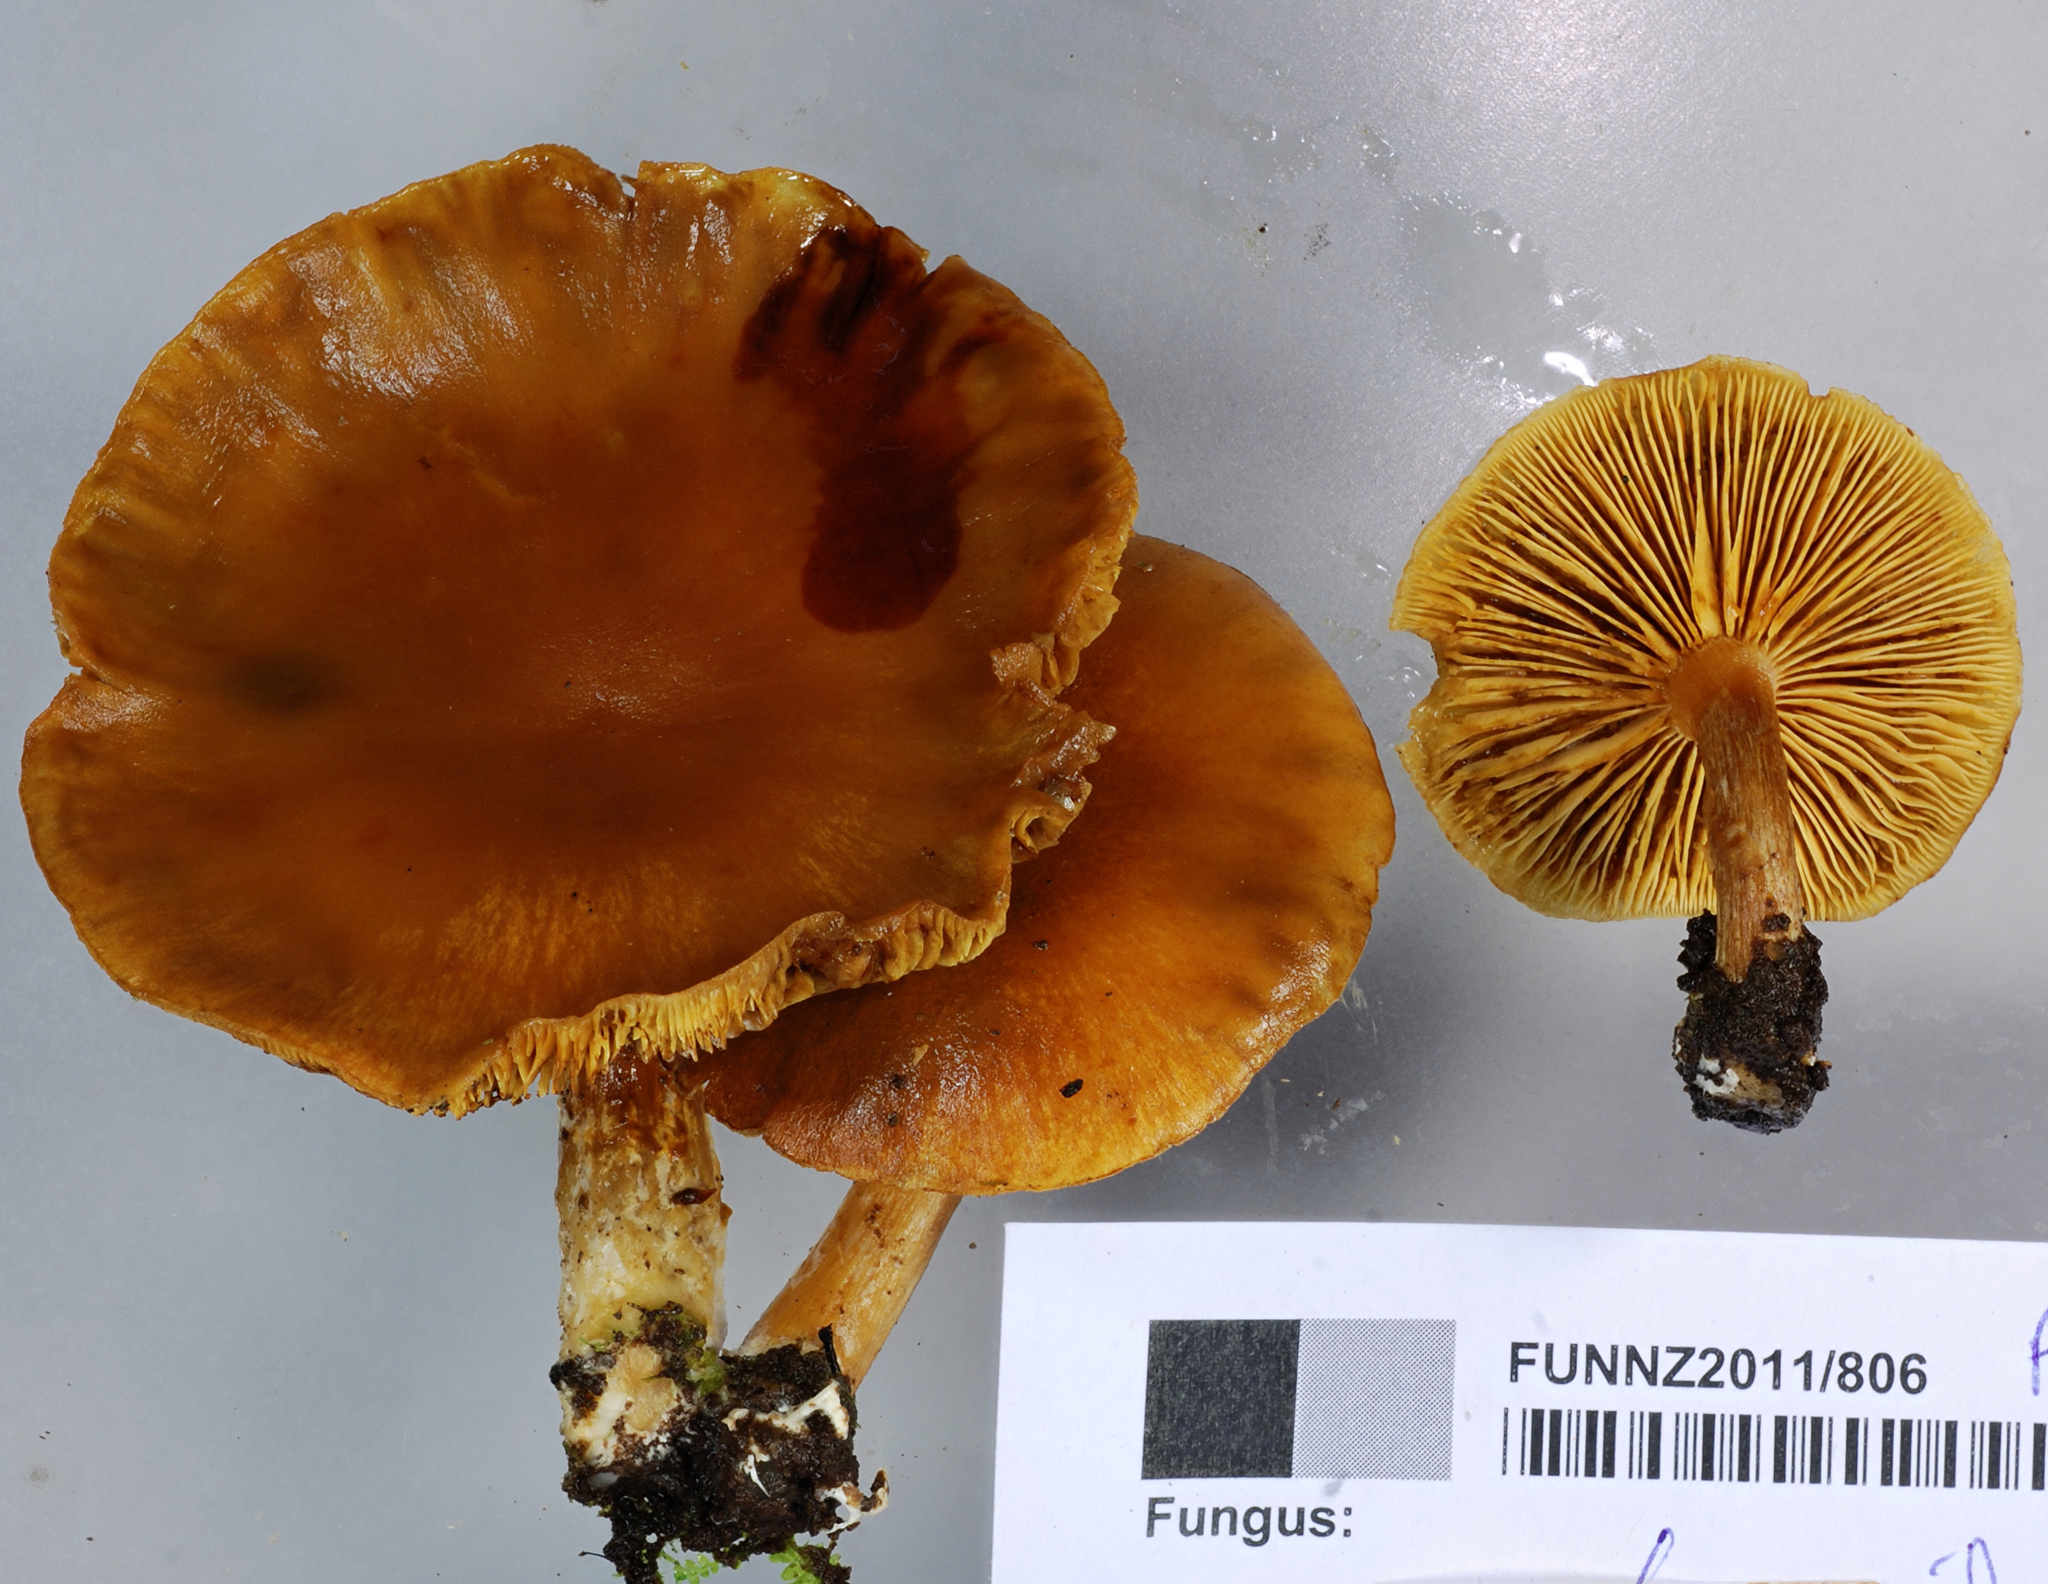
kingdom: Fungi
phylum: Basidiomycota
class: Agaricomycetes
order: Agaricales
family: Hymenogastraceae
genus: Gymnopilus
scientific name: Gymnopilus penetrans
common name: Common rustgill
